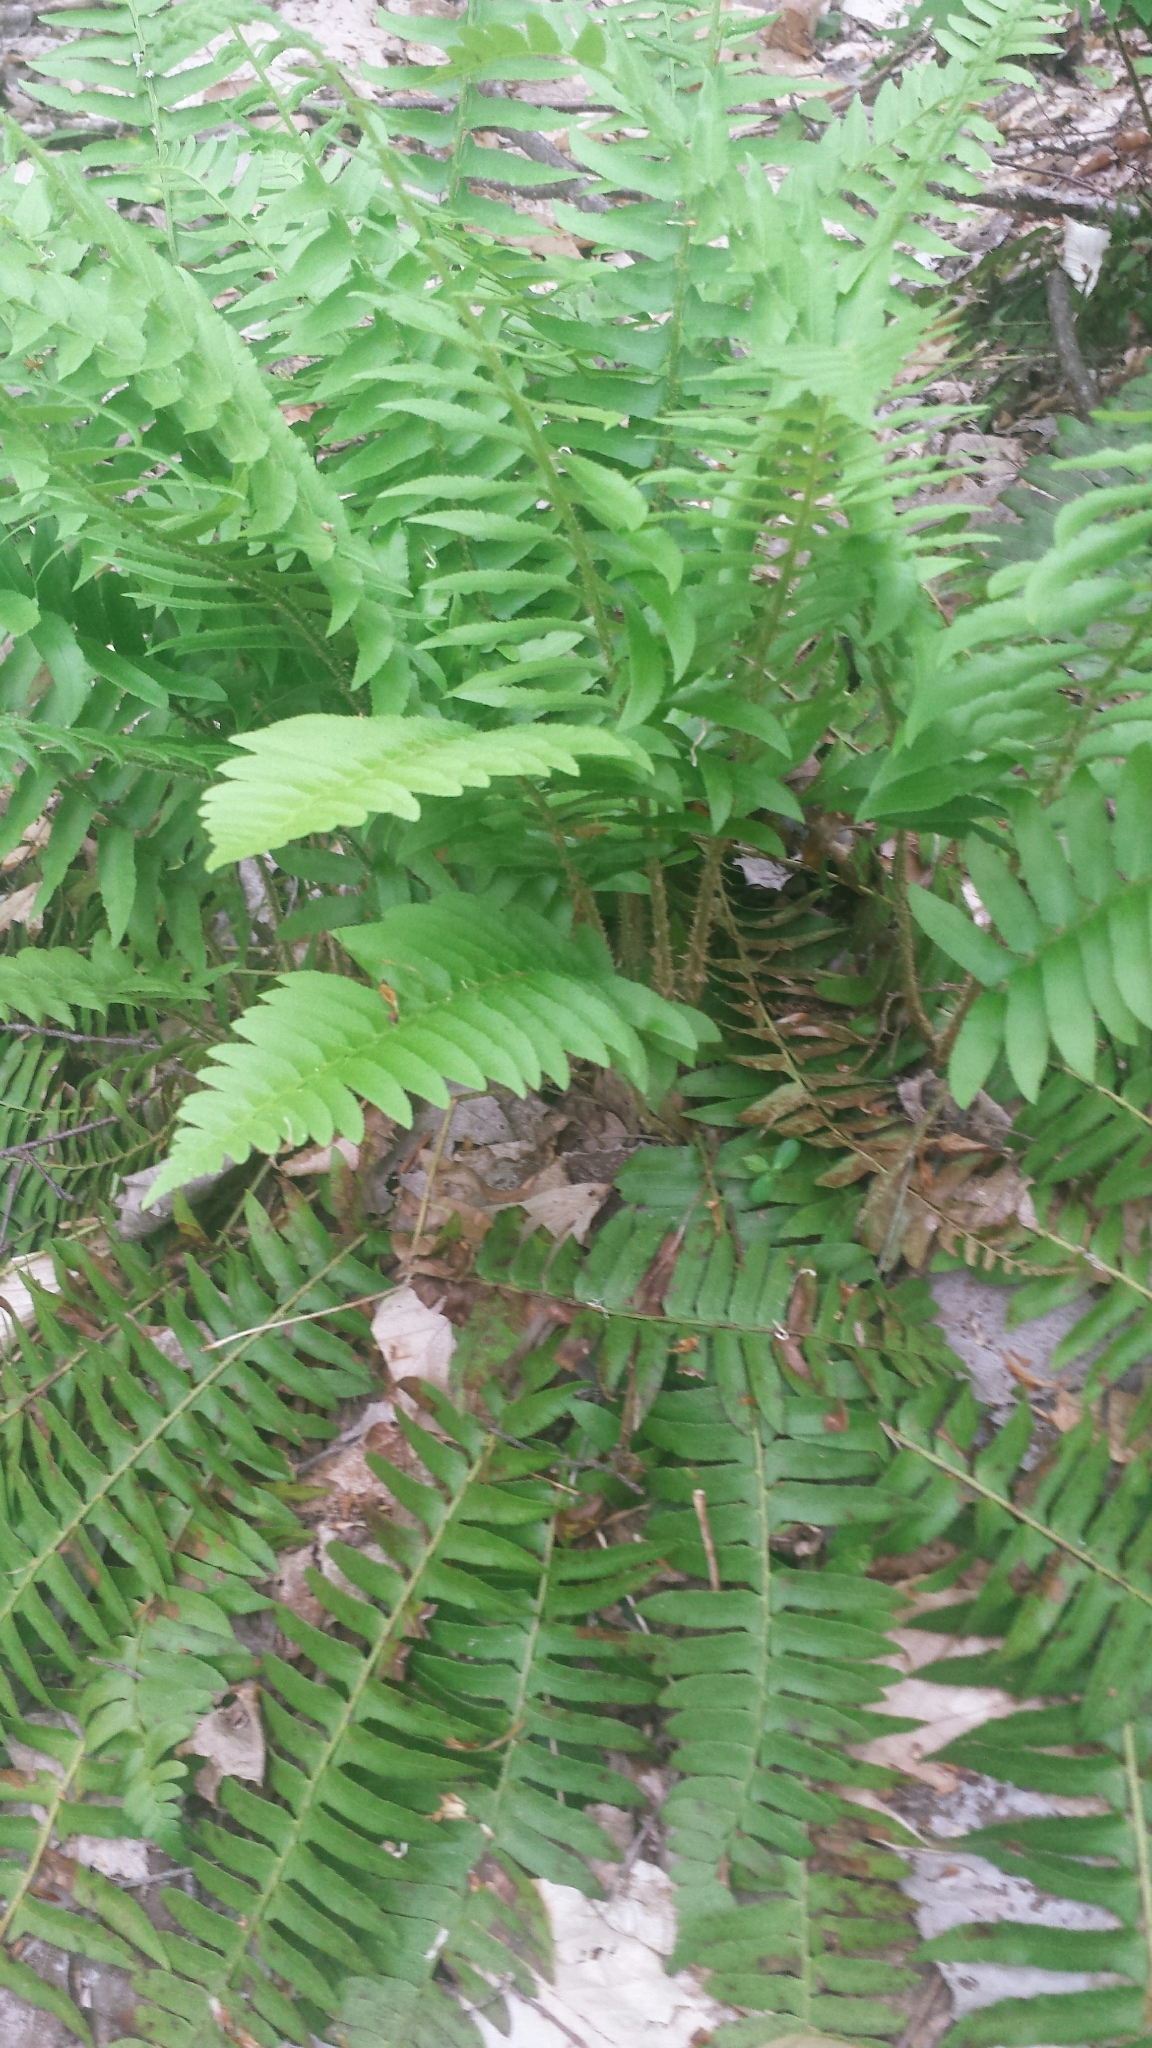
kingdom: Plantae
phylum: Tracheophyta
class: Polypodiopsida
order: Polypodiales
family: Dryopteridaceae
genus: Polystichum
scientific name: Polystichum acrostichoides
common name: Christmas fern
